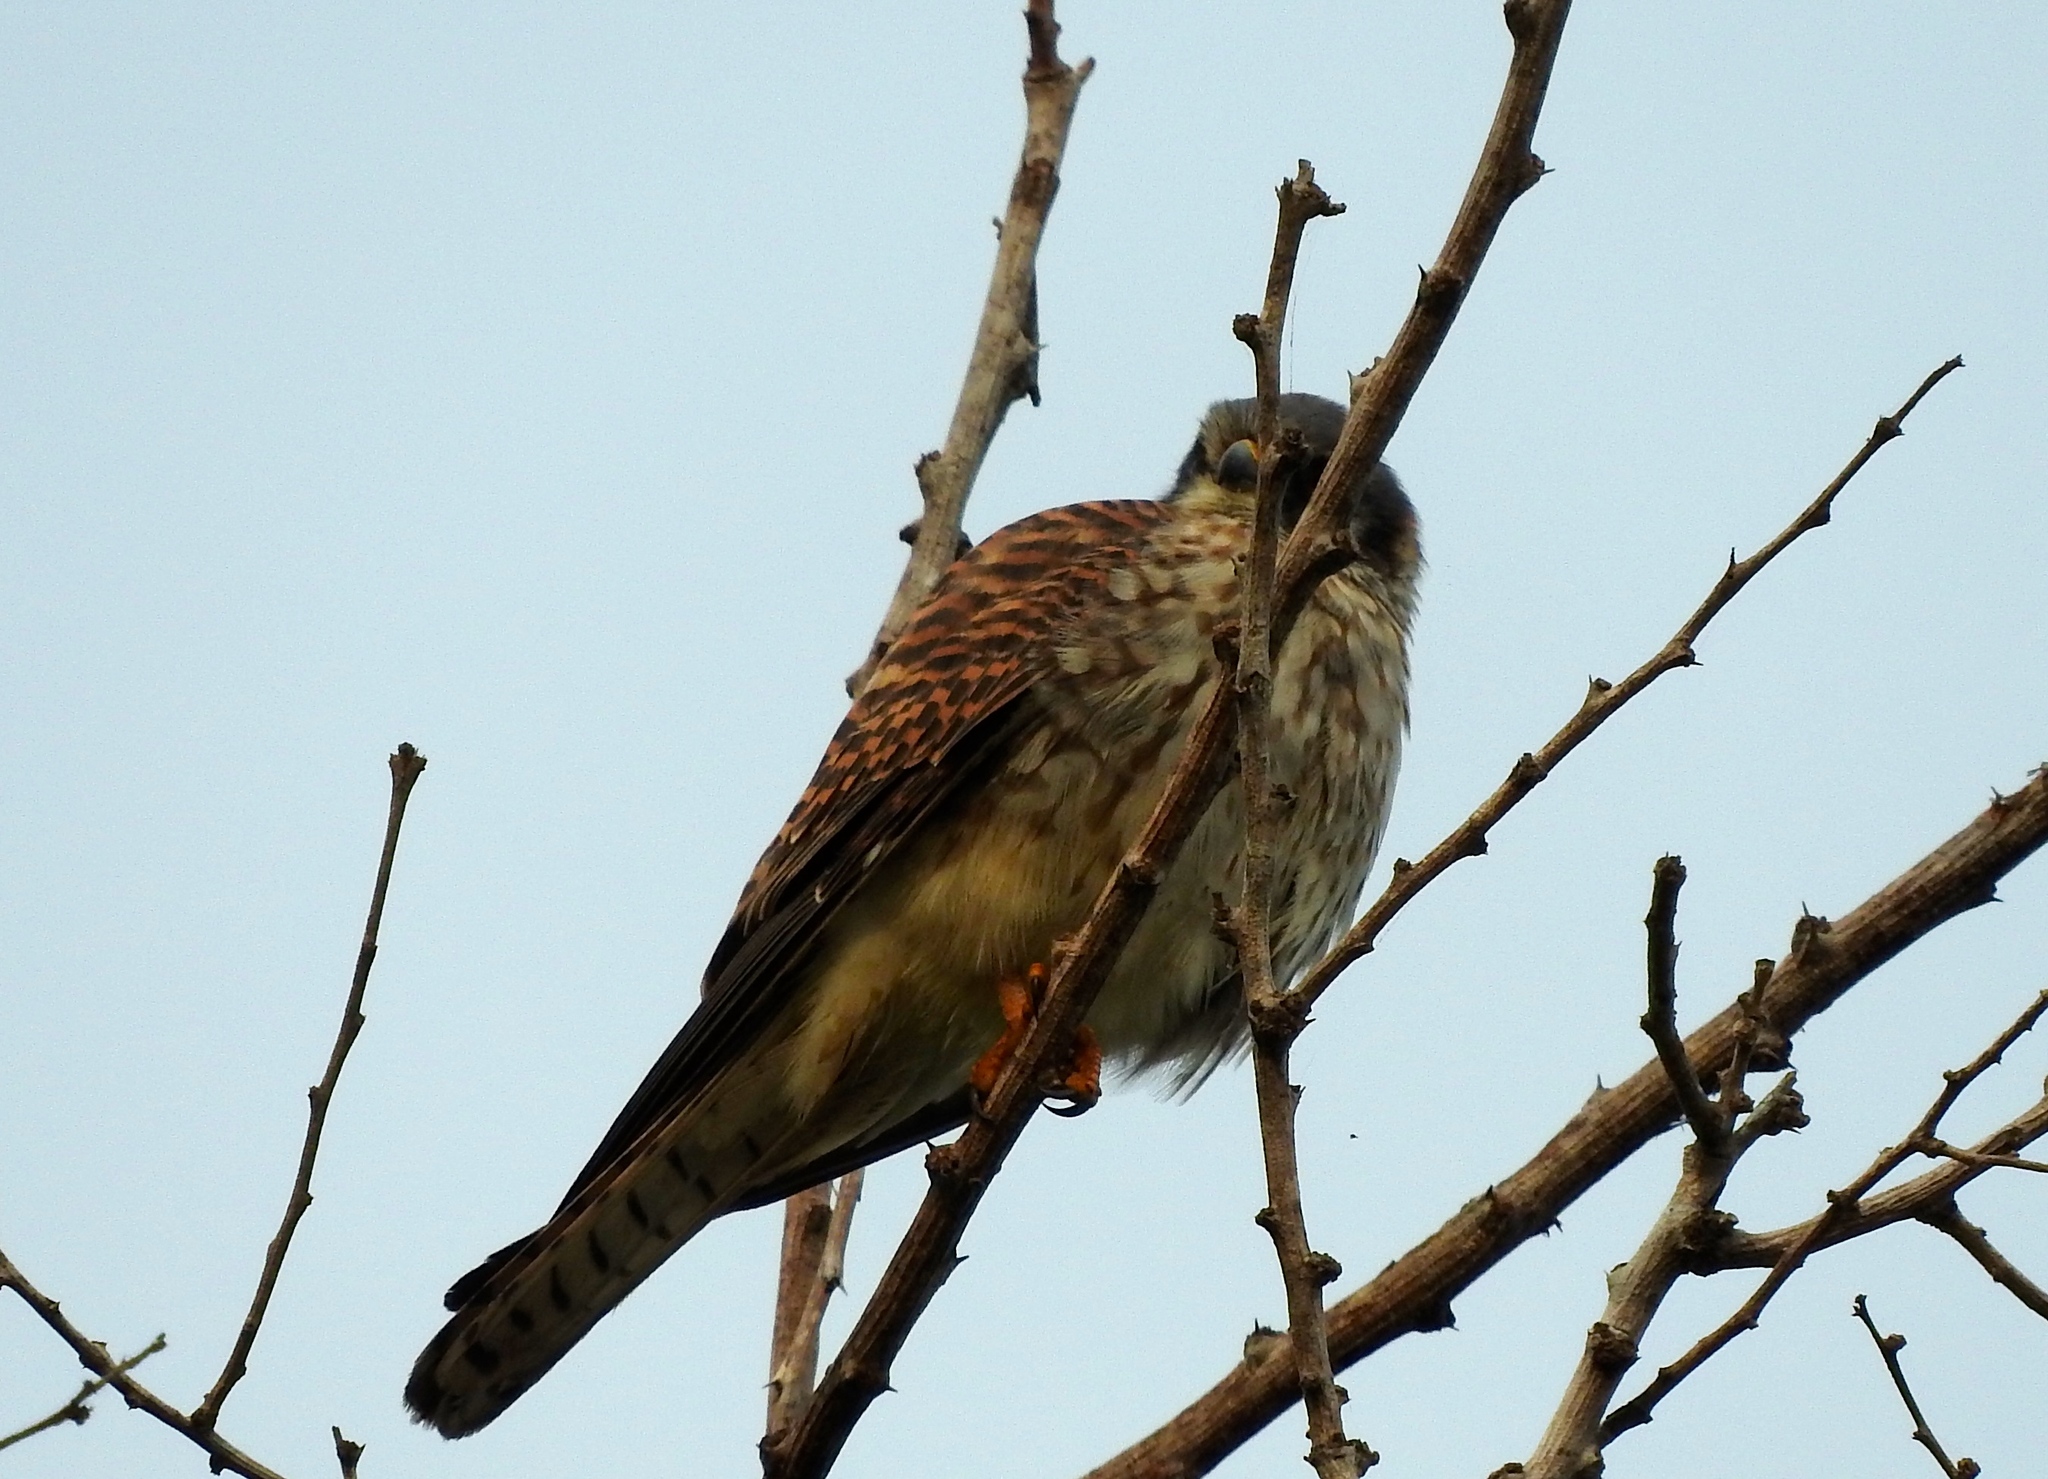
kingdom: Animalia
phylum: Chordata
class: Aves
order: Falconiformes
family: Falconidae
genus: Falco
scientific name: Falco sparverius
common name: American kestrel
